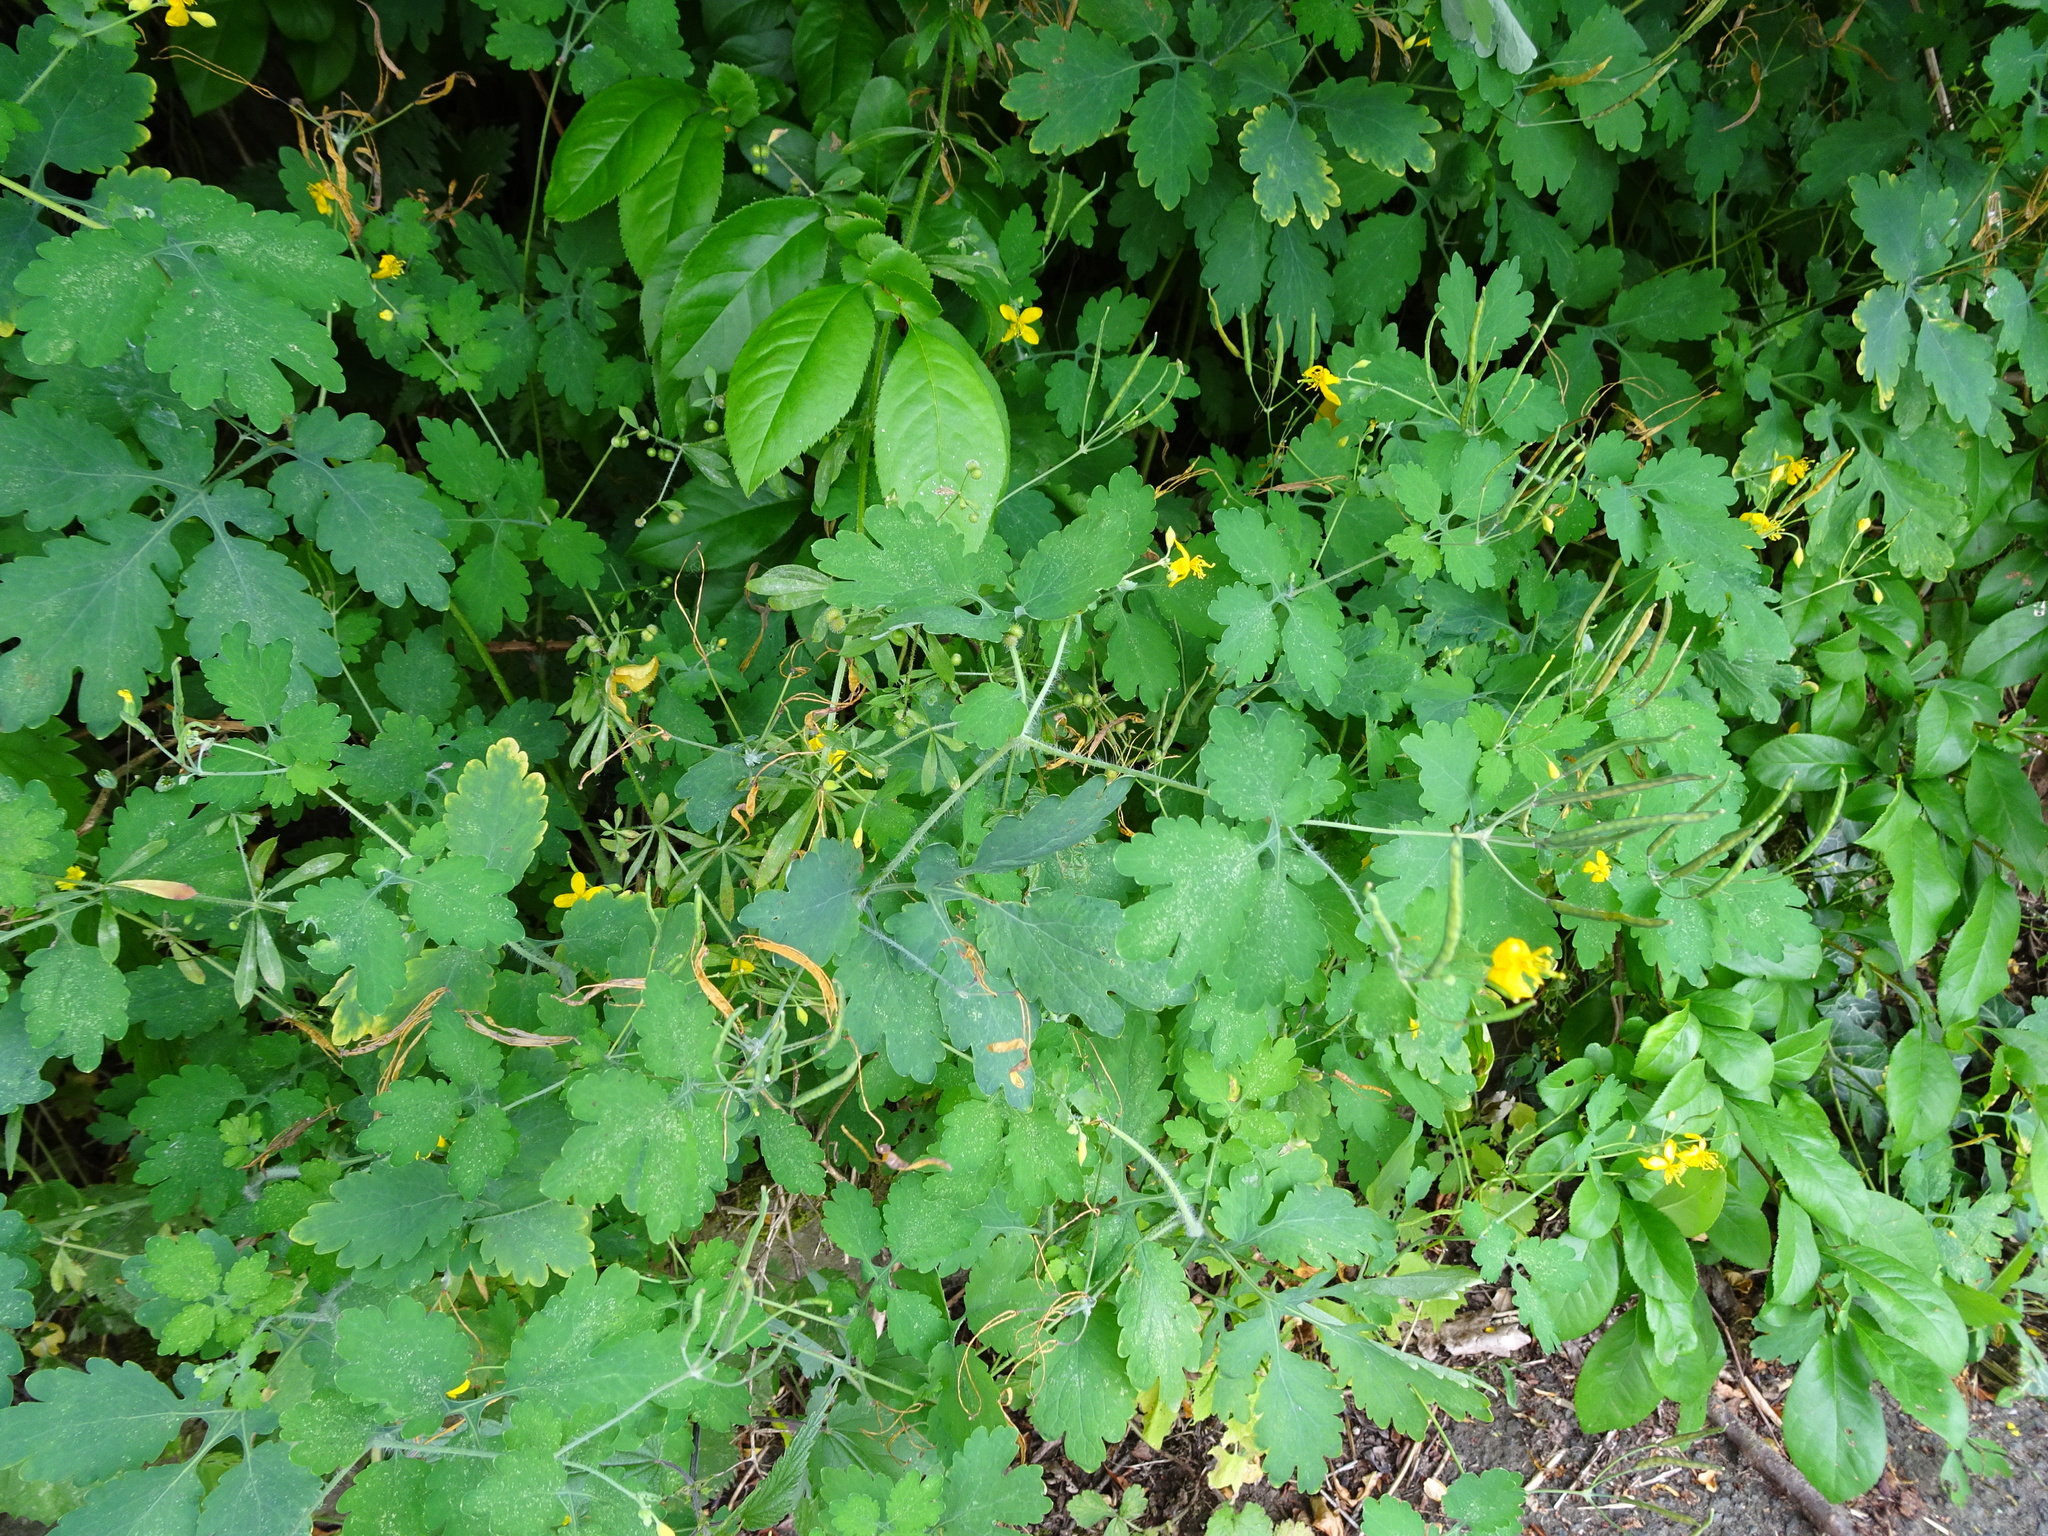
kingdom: Plantae
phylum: Tracheophyta
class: Magnoliopsida
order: Ranunculales
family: Papaveraceae
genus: Chelidonium
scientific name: Chelidonium majus
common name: Greater celandine
